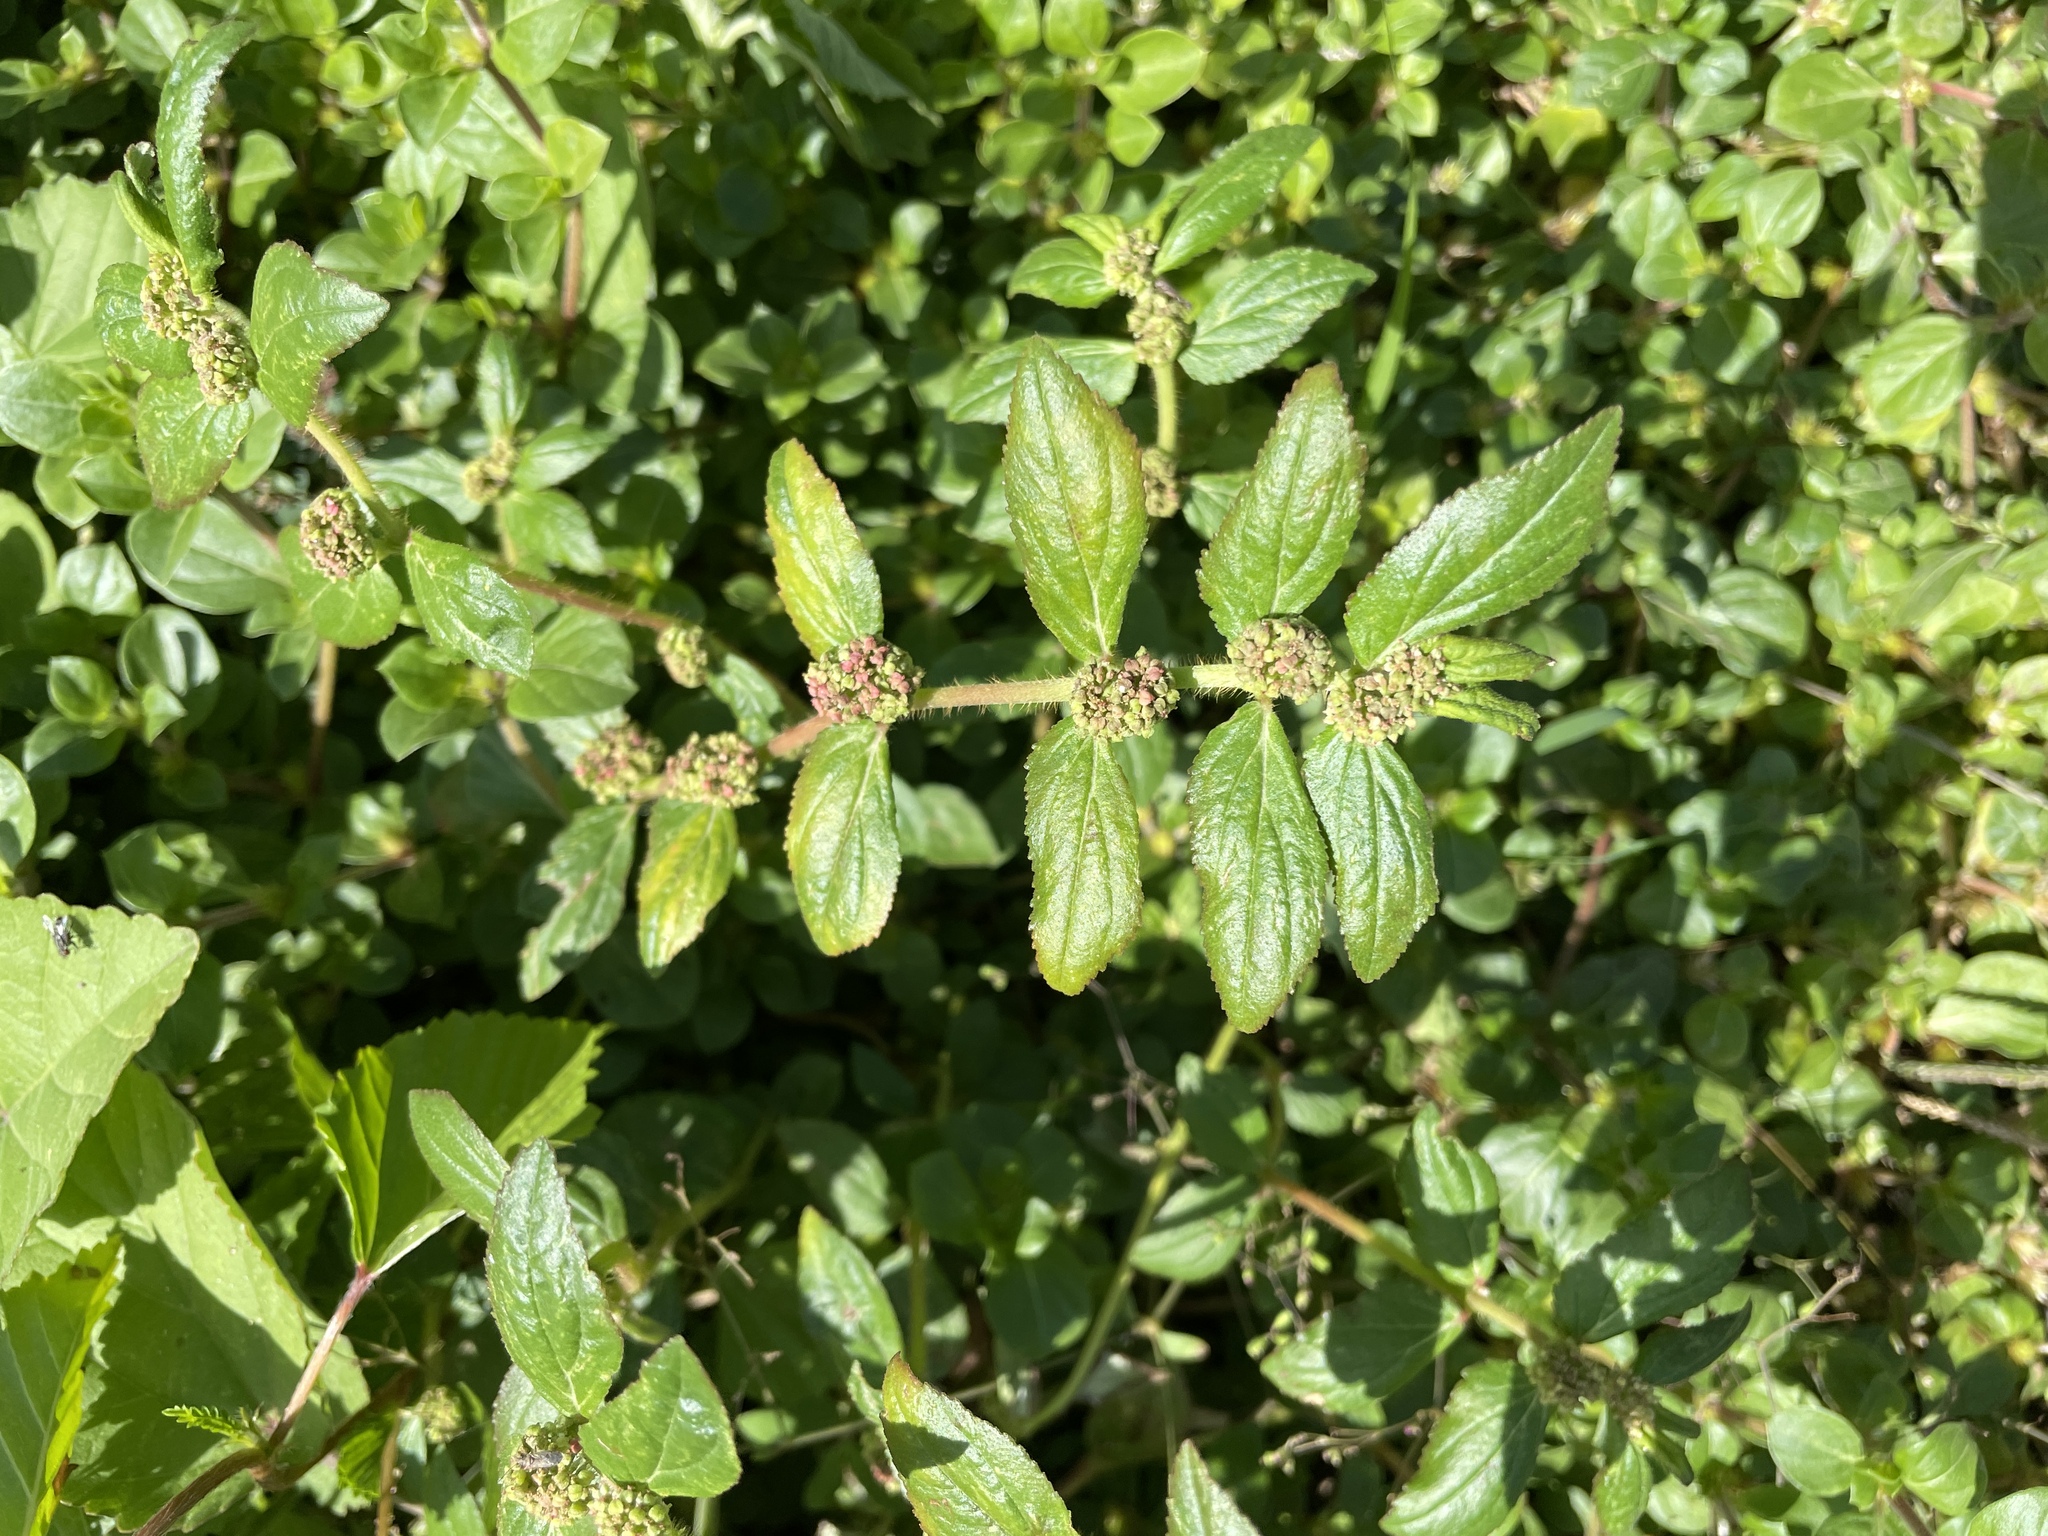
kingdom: Plantae
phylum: Tracheophyta
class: Magnoliopsida
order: Malpighiales
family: Euphorbiaceae
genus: Euphorbia
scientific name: Euphorbia hirta
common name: Pillpod sandmat
